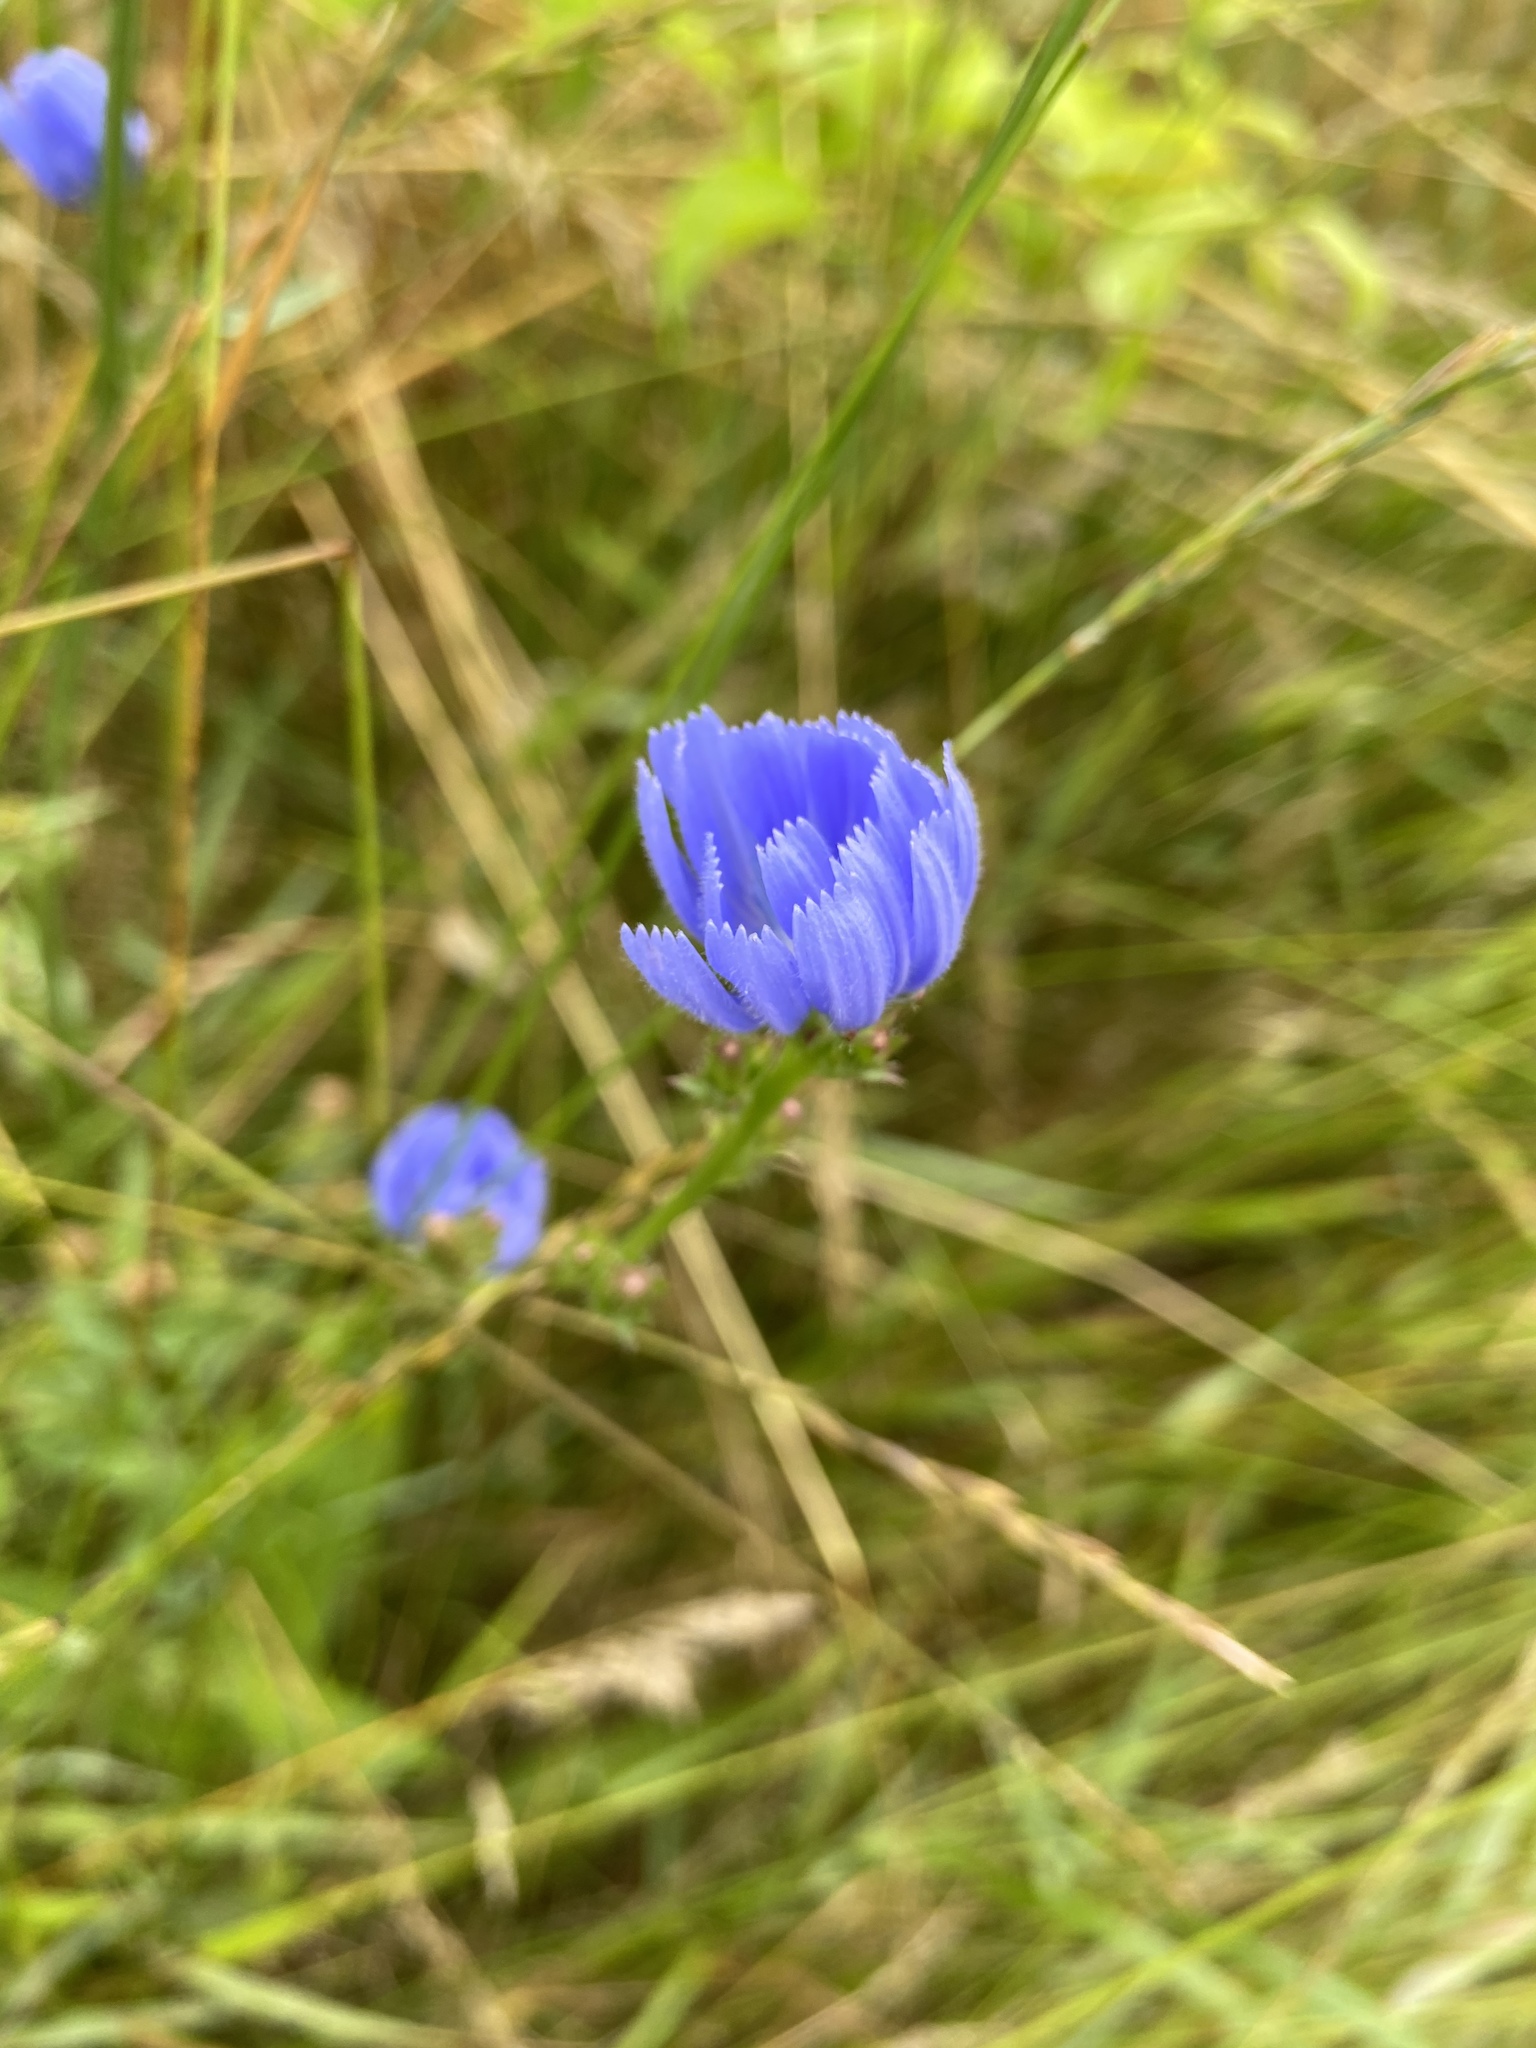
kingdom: Plantae
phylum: Tracheophyta
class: Magnoliopsida
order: Asterales
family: Asteraceae
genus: Cichorium
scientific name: Cichorium intybus
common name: Chicory
